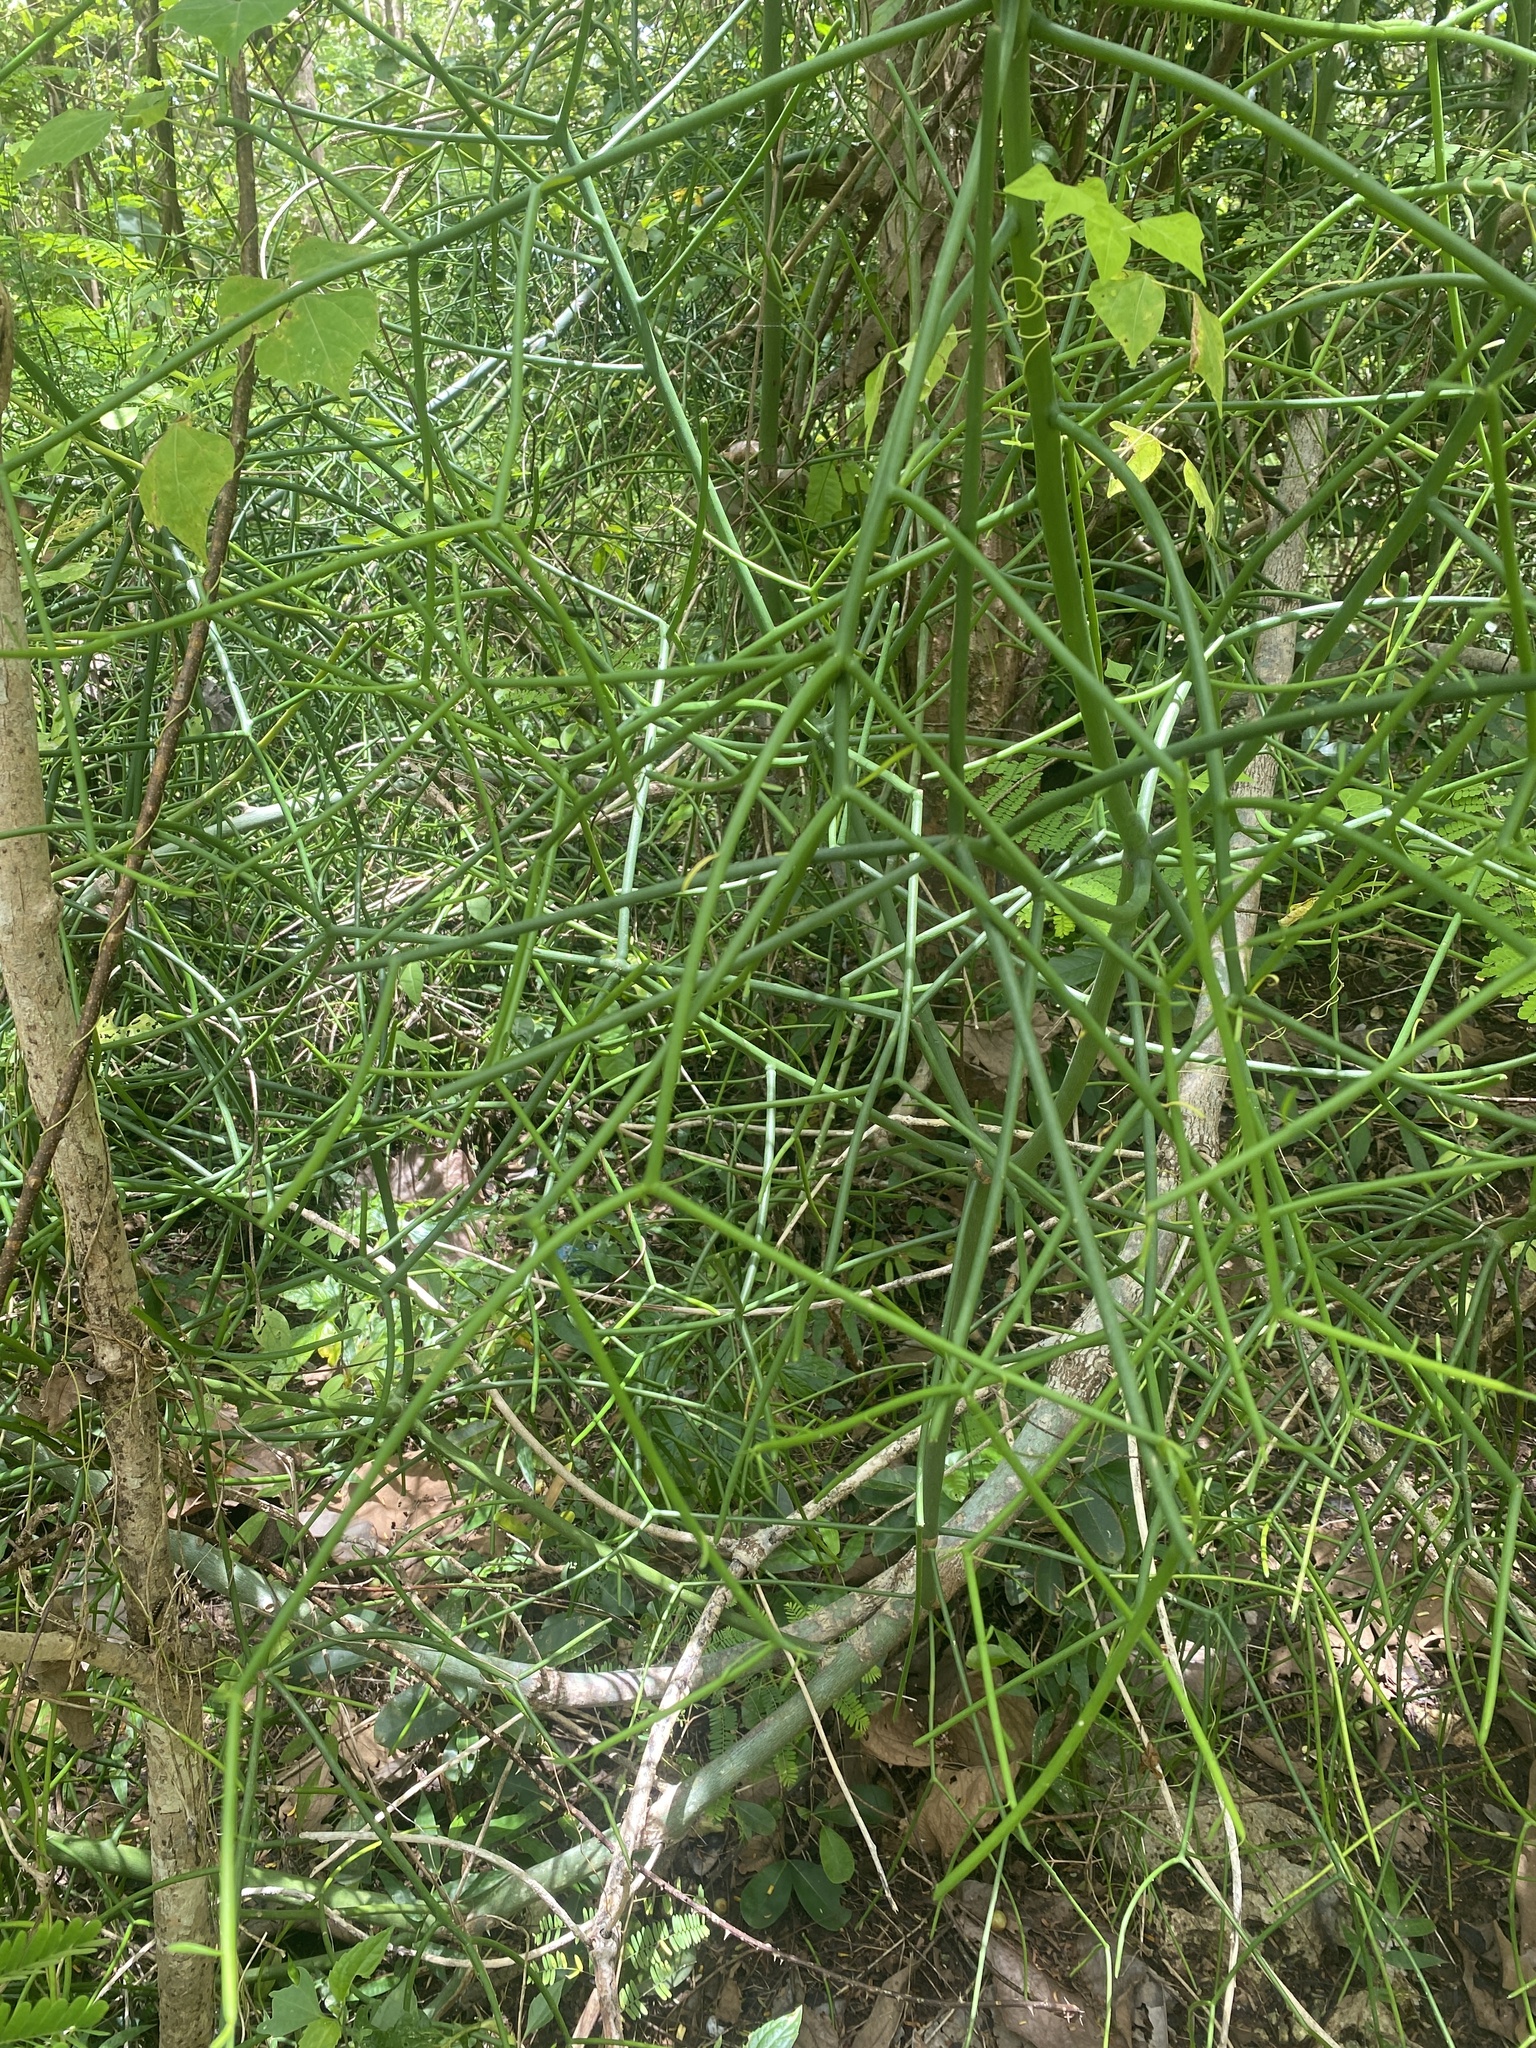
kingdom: Plantae
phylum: Tracheophyta
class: Magnoliopsida
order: Malpighiales
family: Euphorbiaceae
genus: Euphorbia
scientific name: Euphorbia tirucalli
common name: Indiantree spurge
